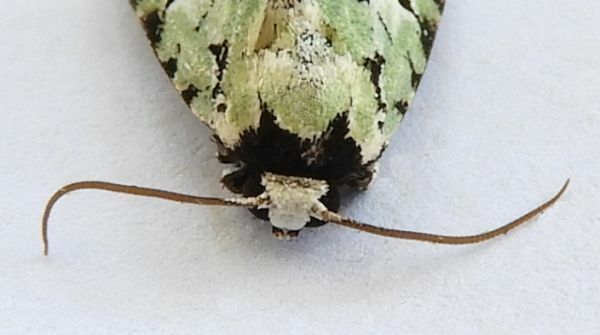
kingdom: Animalia
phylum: Arthropoda
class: Insecta
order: Lepidoptera
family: Noctuidae
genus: Emarginea
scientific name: Emarginea dulcinea
